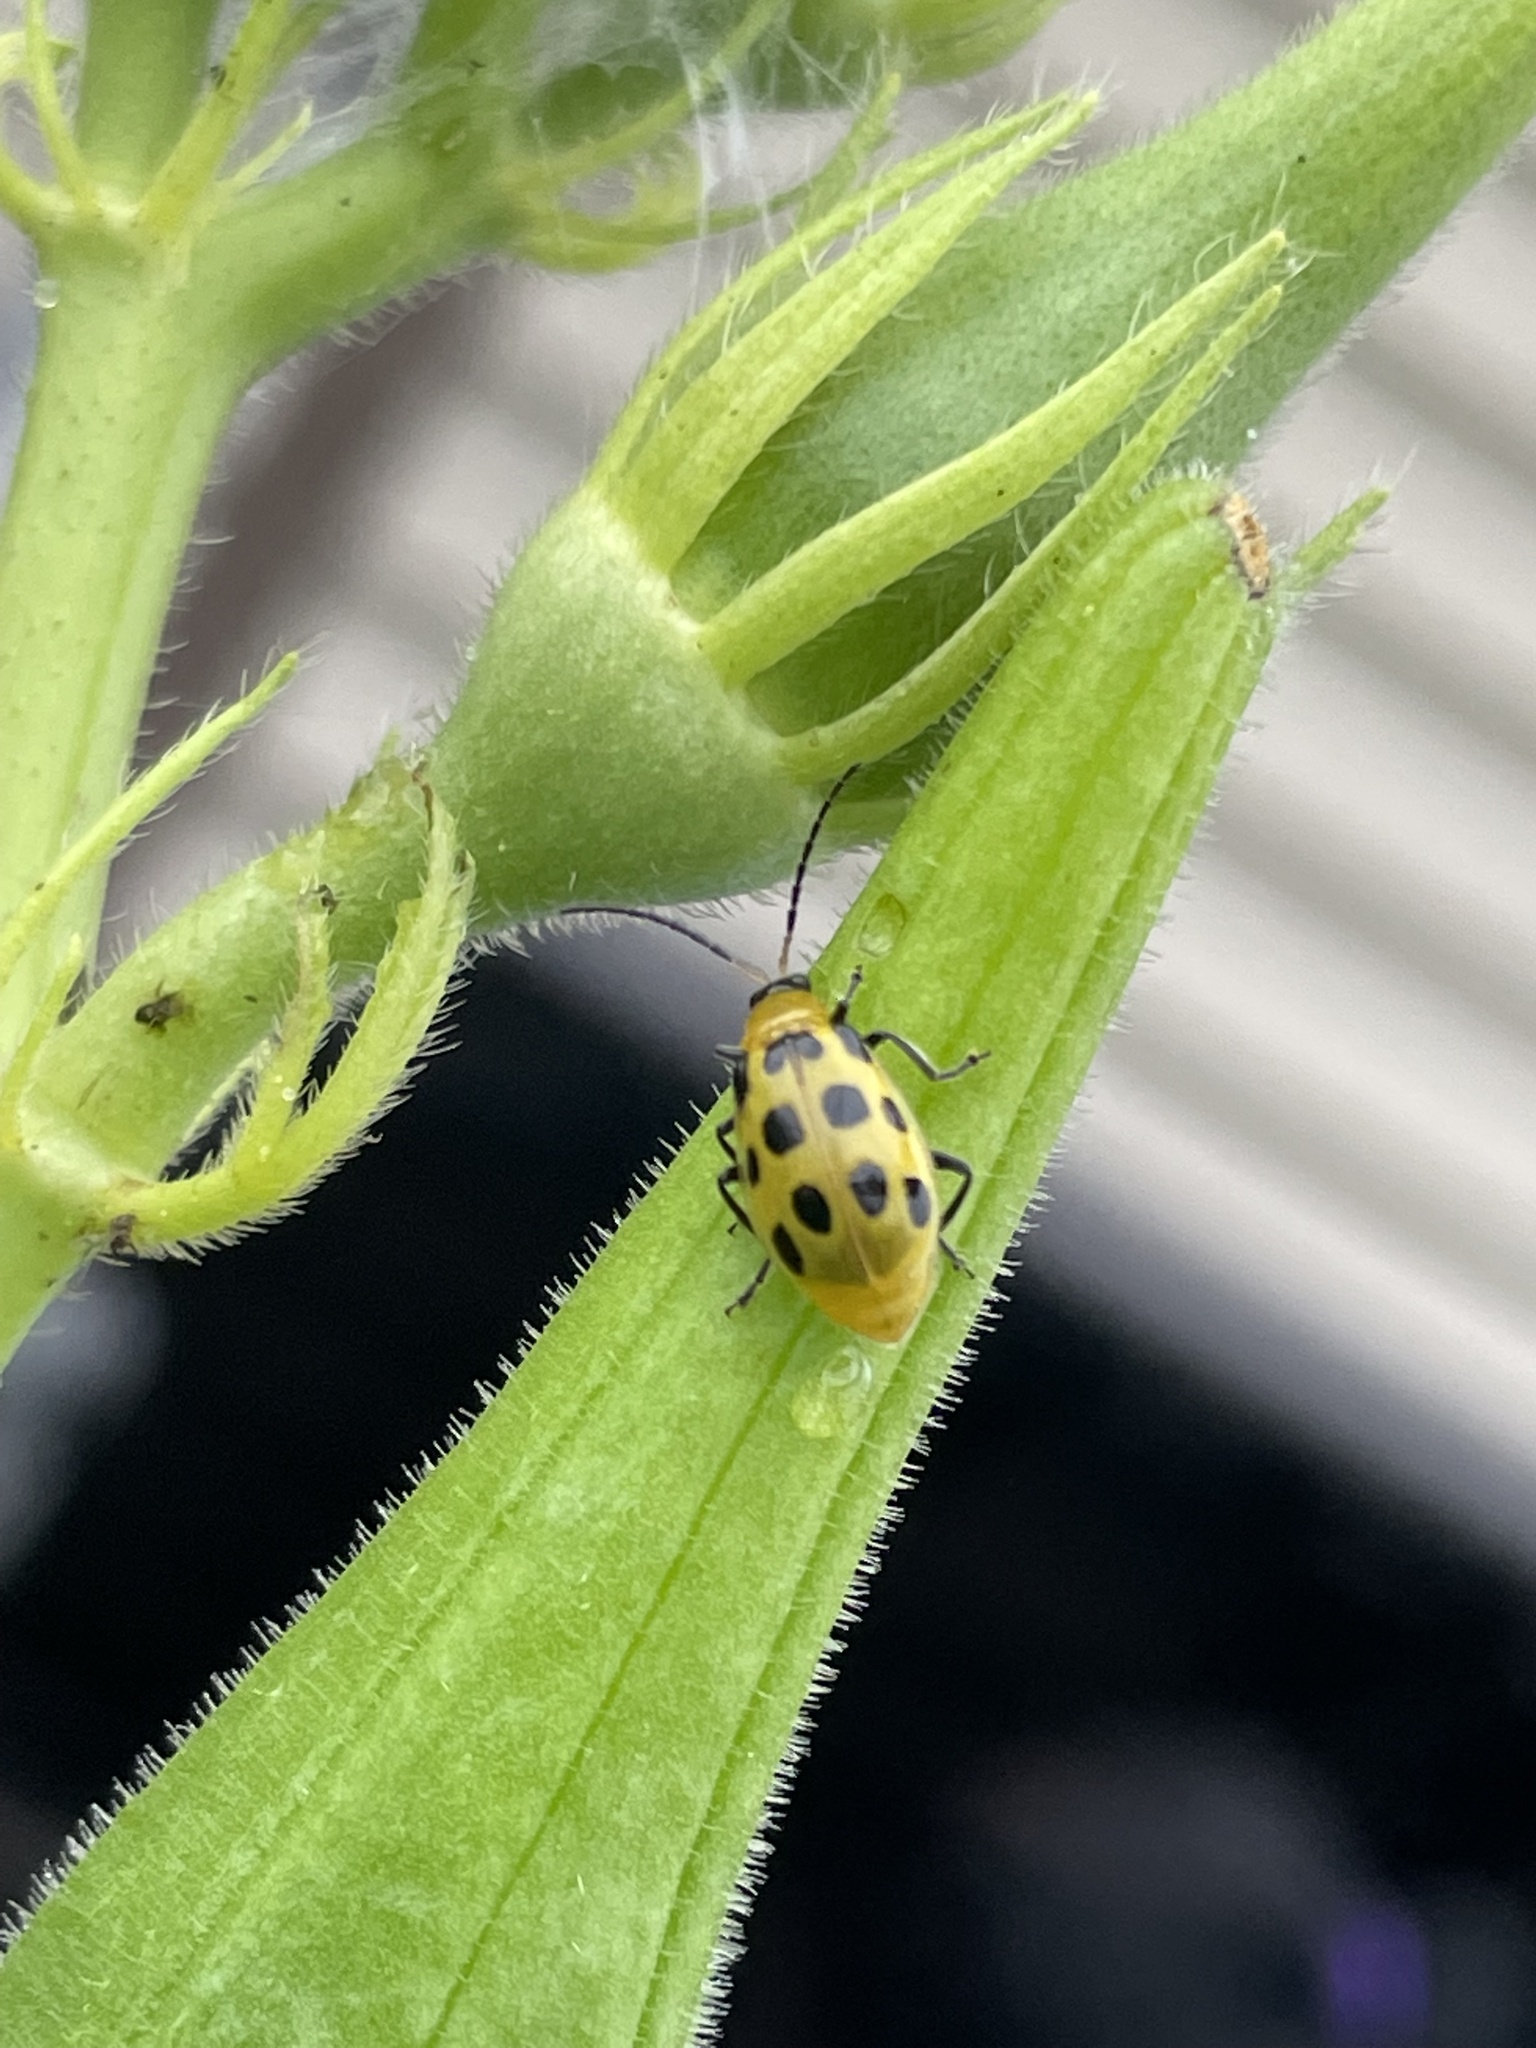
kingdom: Animalia
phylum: Arthropoda
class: Insecta
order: Coleoptera
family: Chrysomelidae
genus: Diabrotica
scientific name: Diabrotica undecimpunctata
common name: Spotted cucumber beetle
